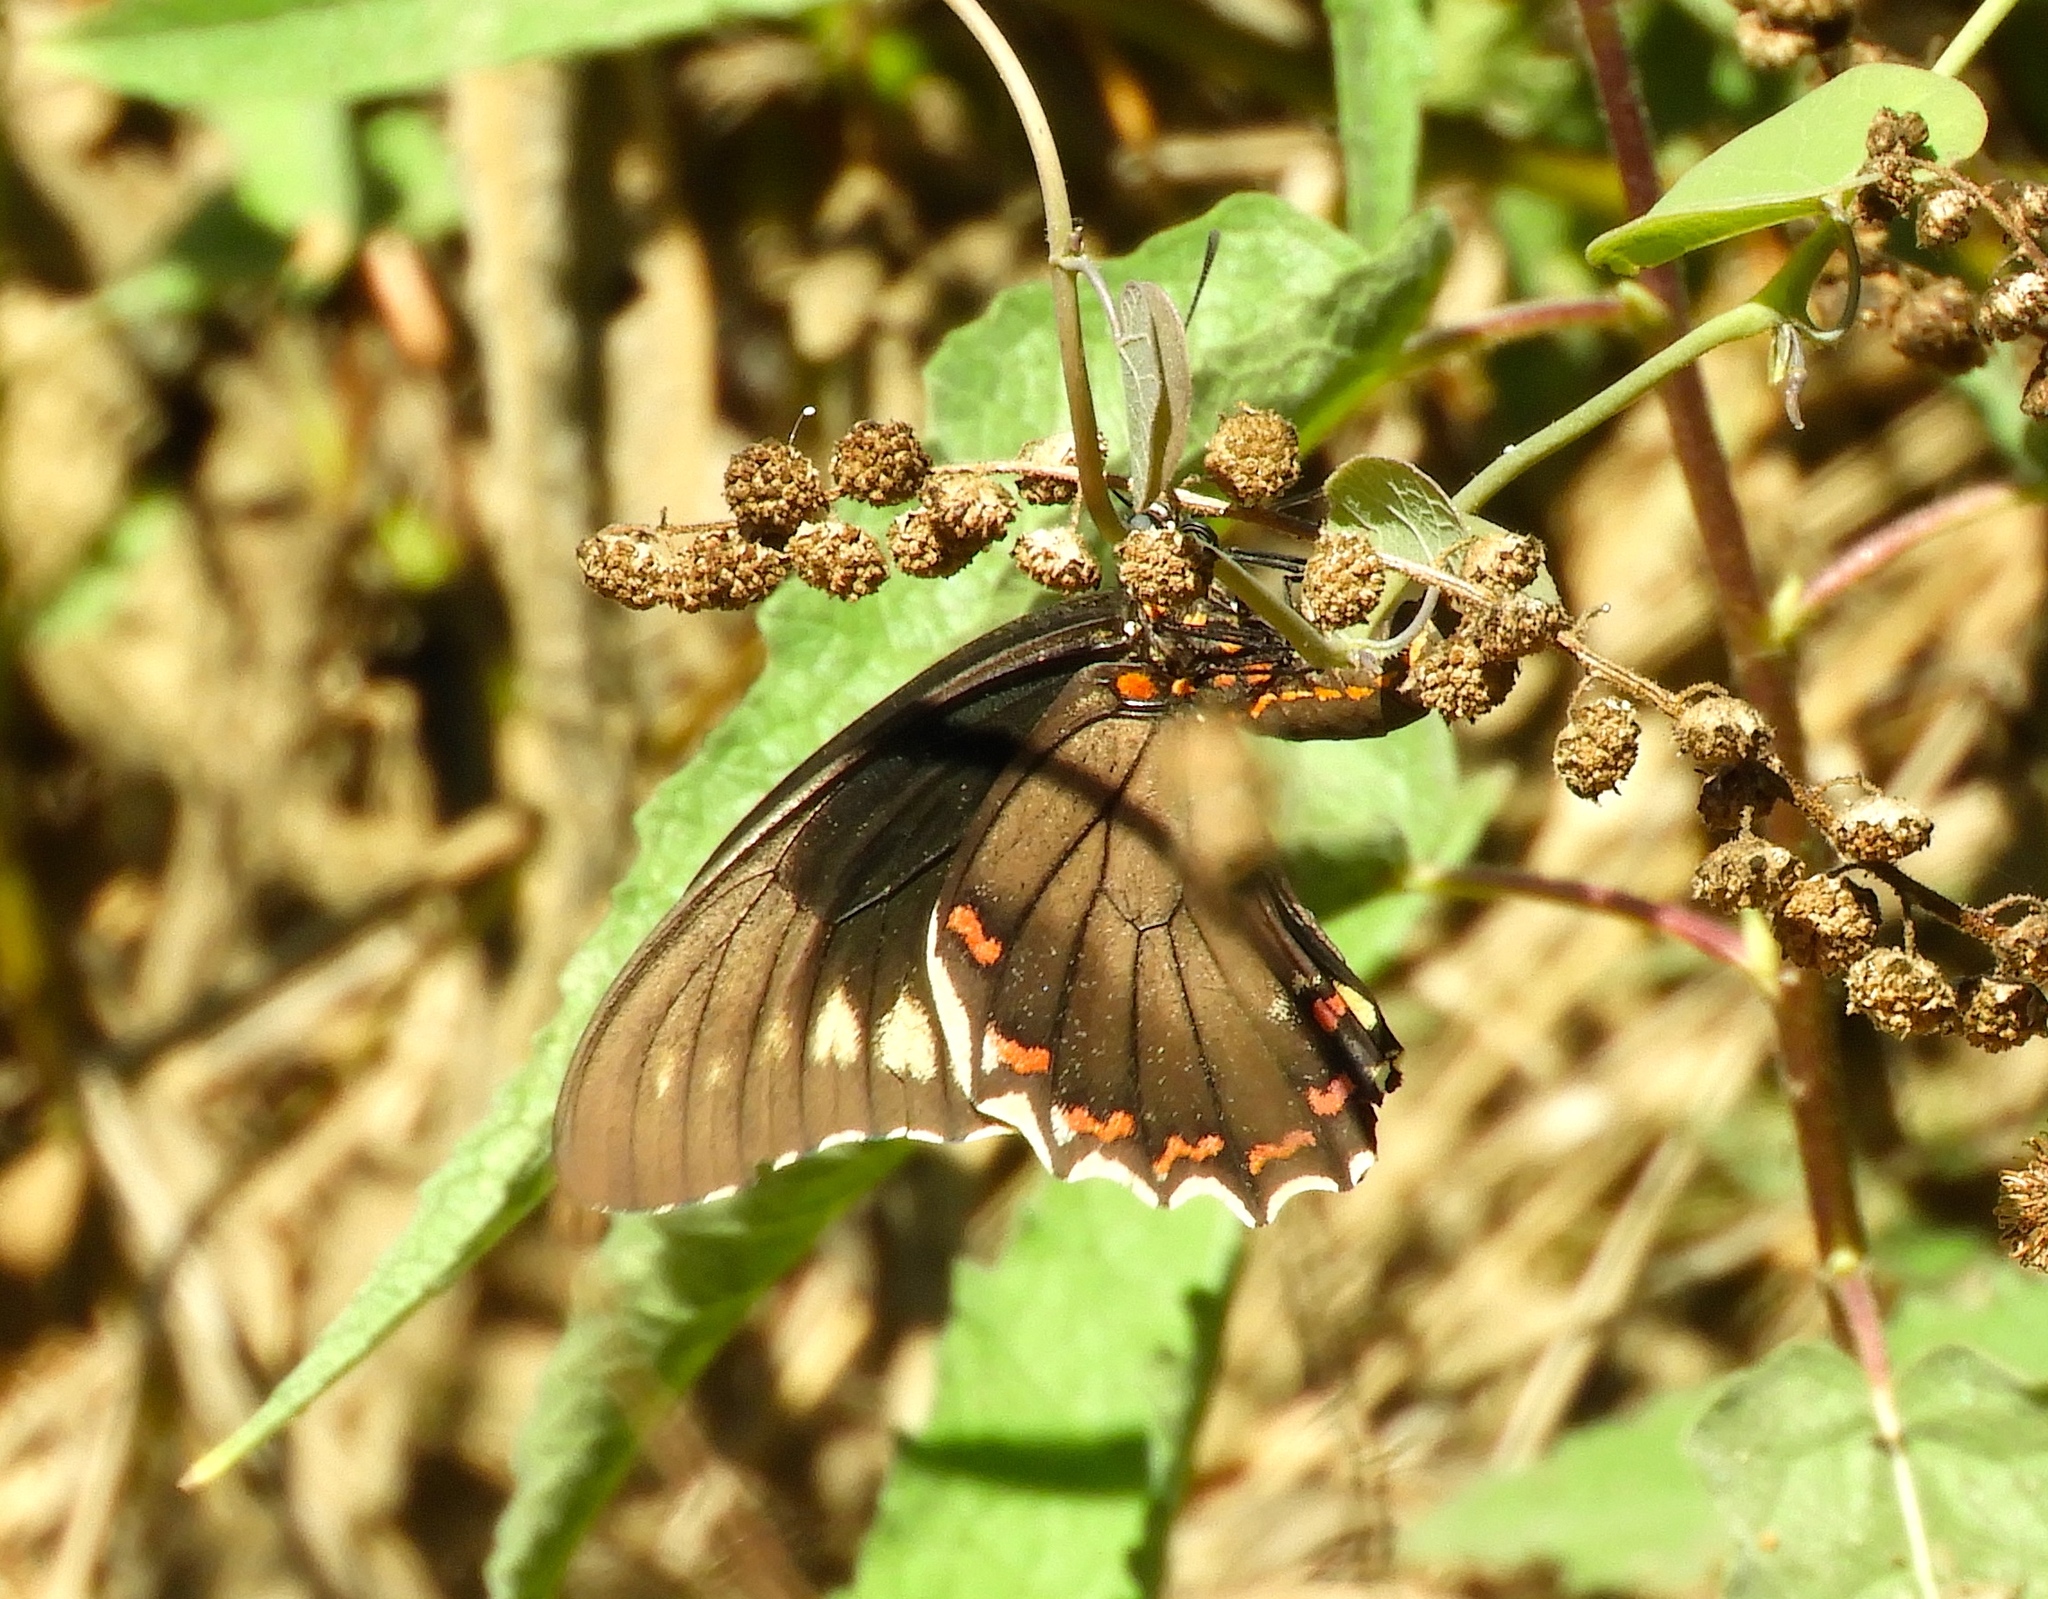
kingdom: Animalia
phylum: Arthropoda
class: Insecta
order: Lepidoptera
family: Papilionidae
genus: Battus
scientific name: Battus polydamas
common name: Polydamas swallowtail
